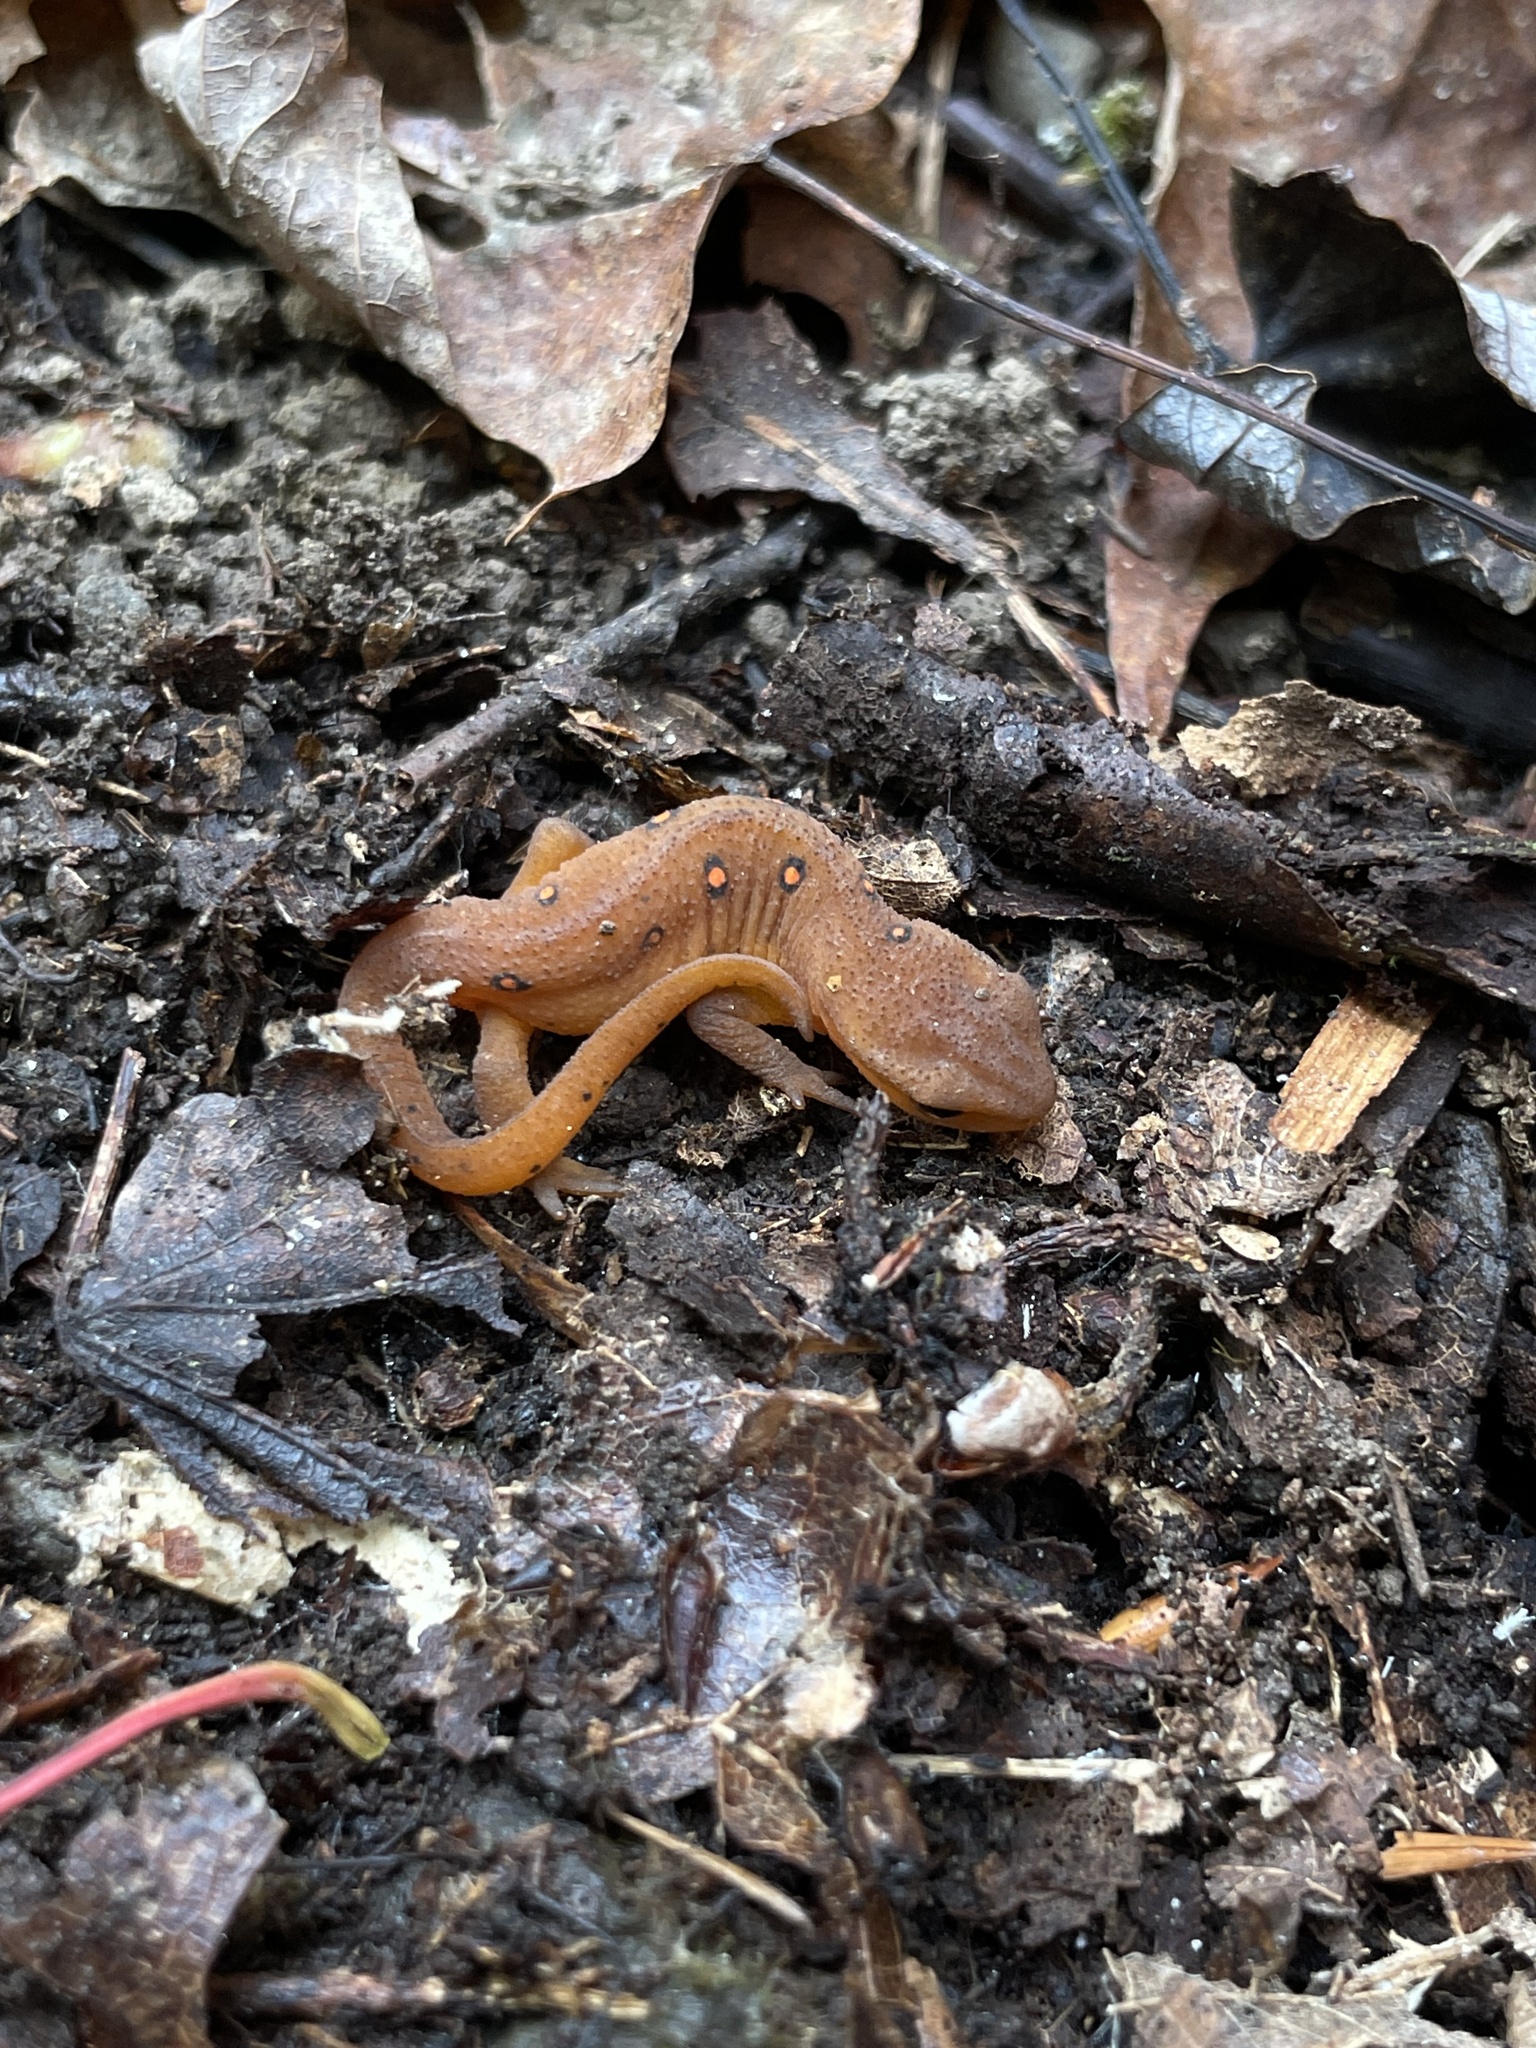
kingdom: Animalia
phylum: Chordata
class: Amphibia
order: Caudata
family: Salamandridae
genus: Notophthalmus
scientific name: Notophthalmus viridescens
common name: Eastern newt
